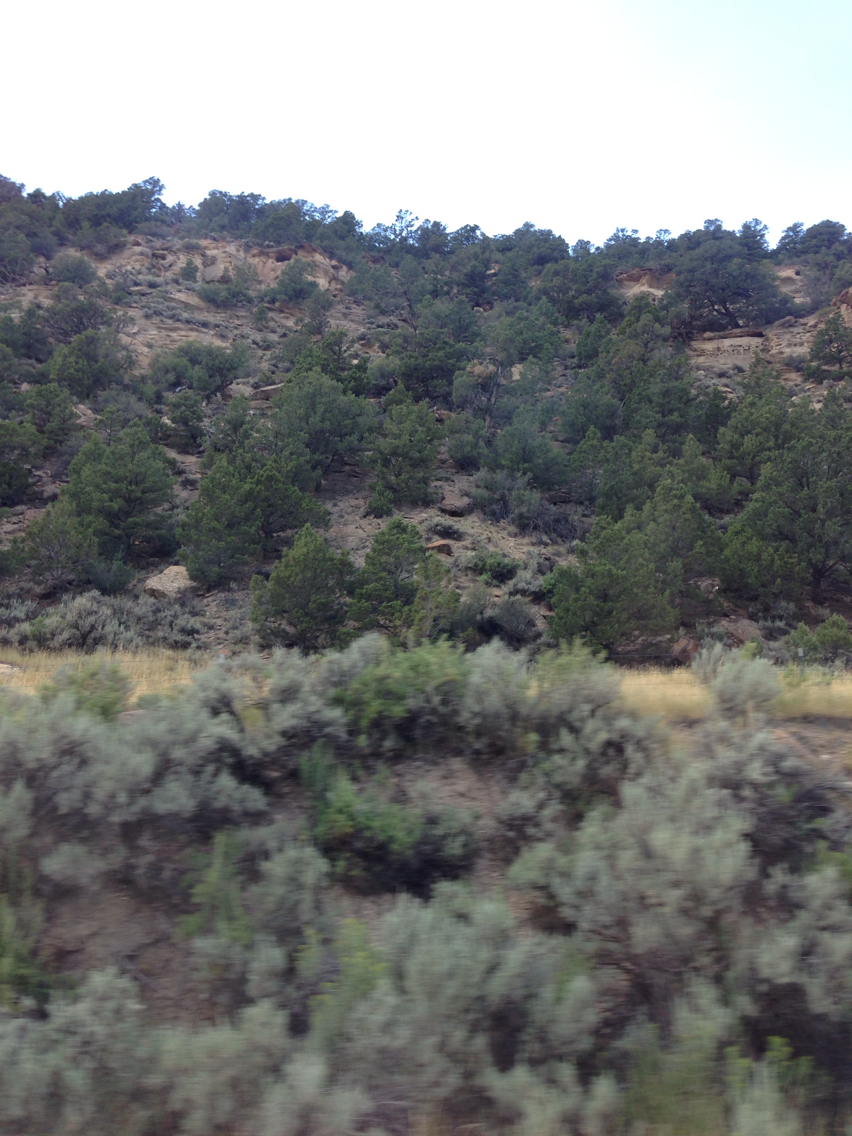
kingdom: Plantae
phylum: Tracheophyta
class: Magnoliopsida
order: Asterales
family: Asteraceae
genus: Artemisia
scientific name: Artemisia tridentata
